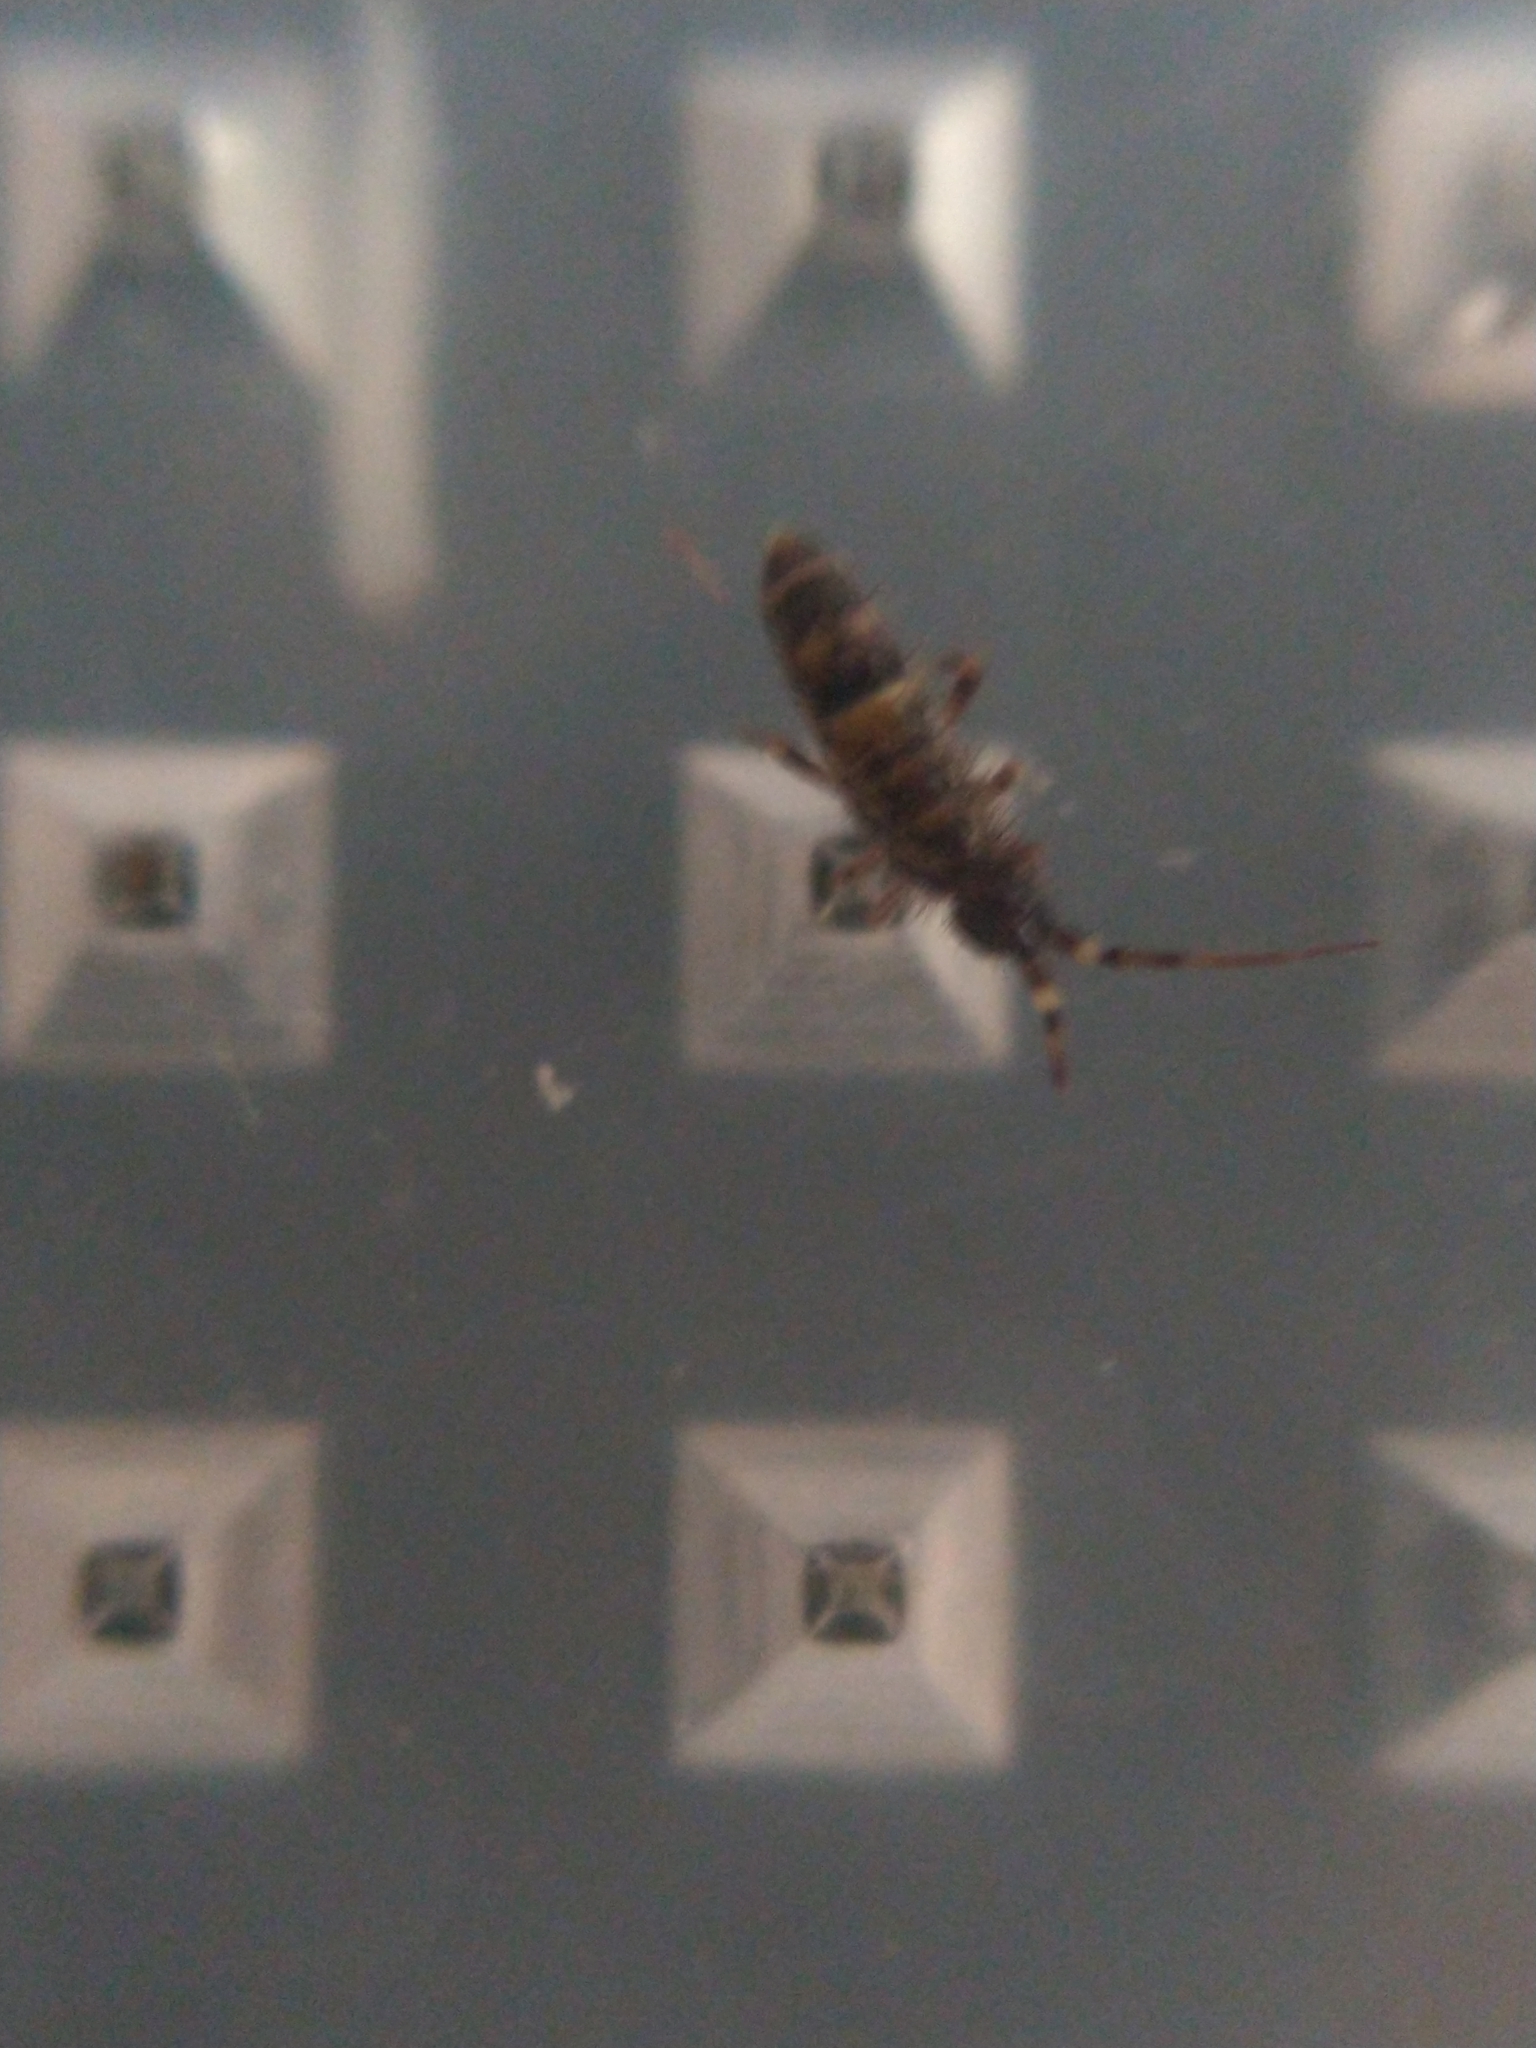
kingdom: Animalia
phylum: Arthropoda
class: Collembola
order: Entomobryomorpha
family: Orchesellidae
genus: Orchesella
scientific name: Orchesella cincta
